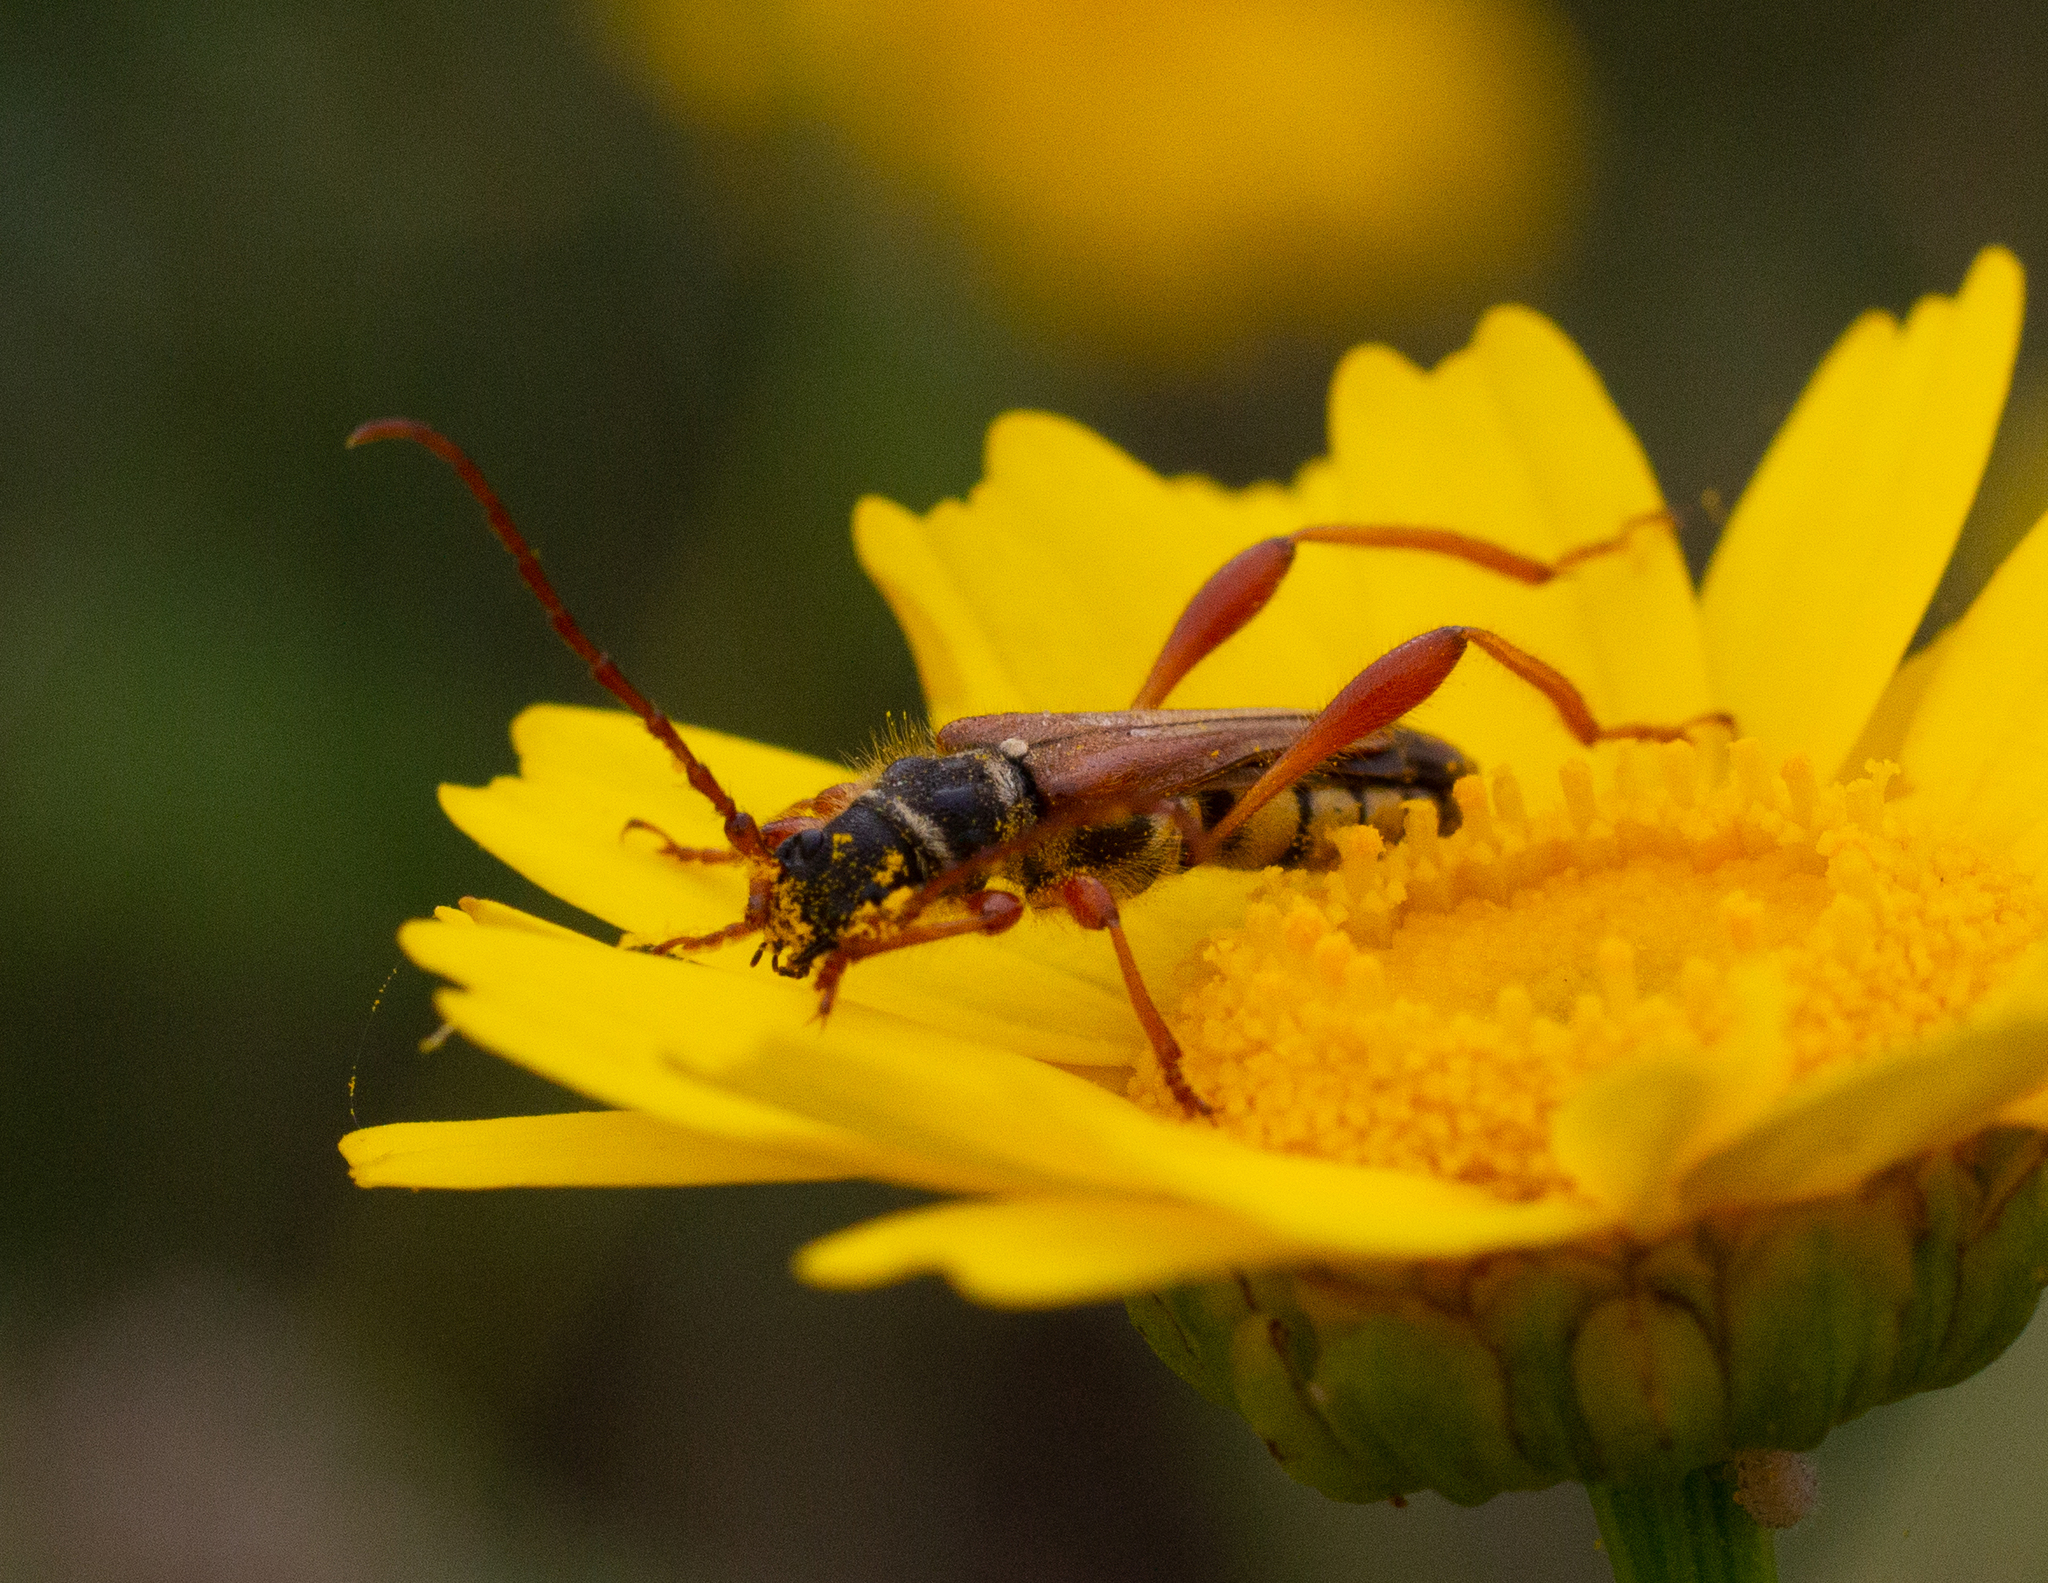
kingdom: Animalia
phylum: Arthropoda
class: Insecta
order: Coleoptera
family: Cerambycidae
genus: Stenopterus
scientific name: Stenopterus mauritanicus
